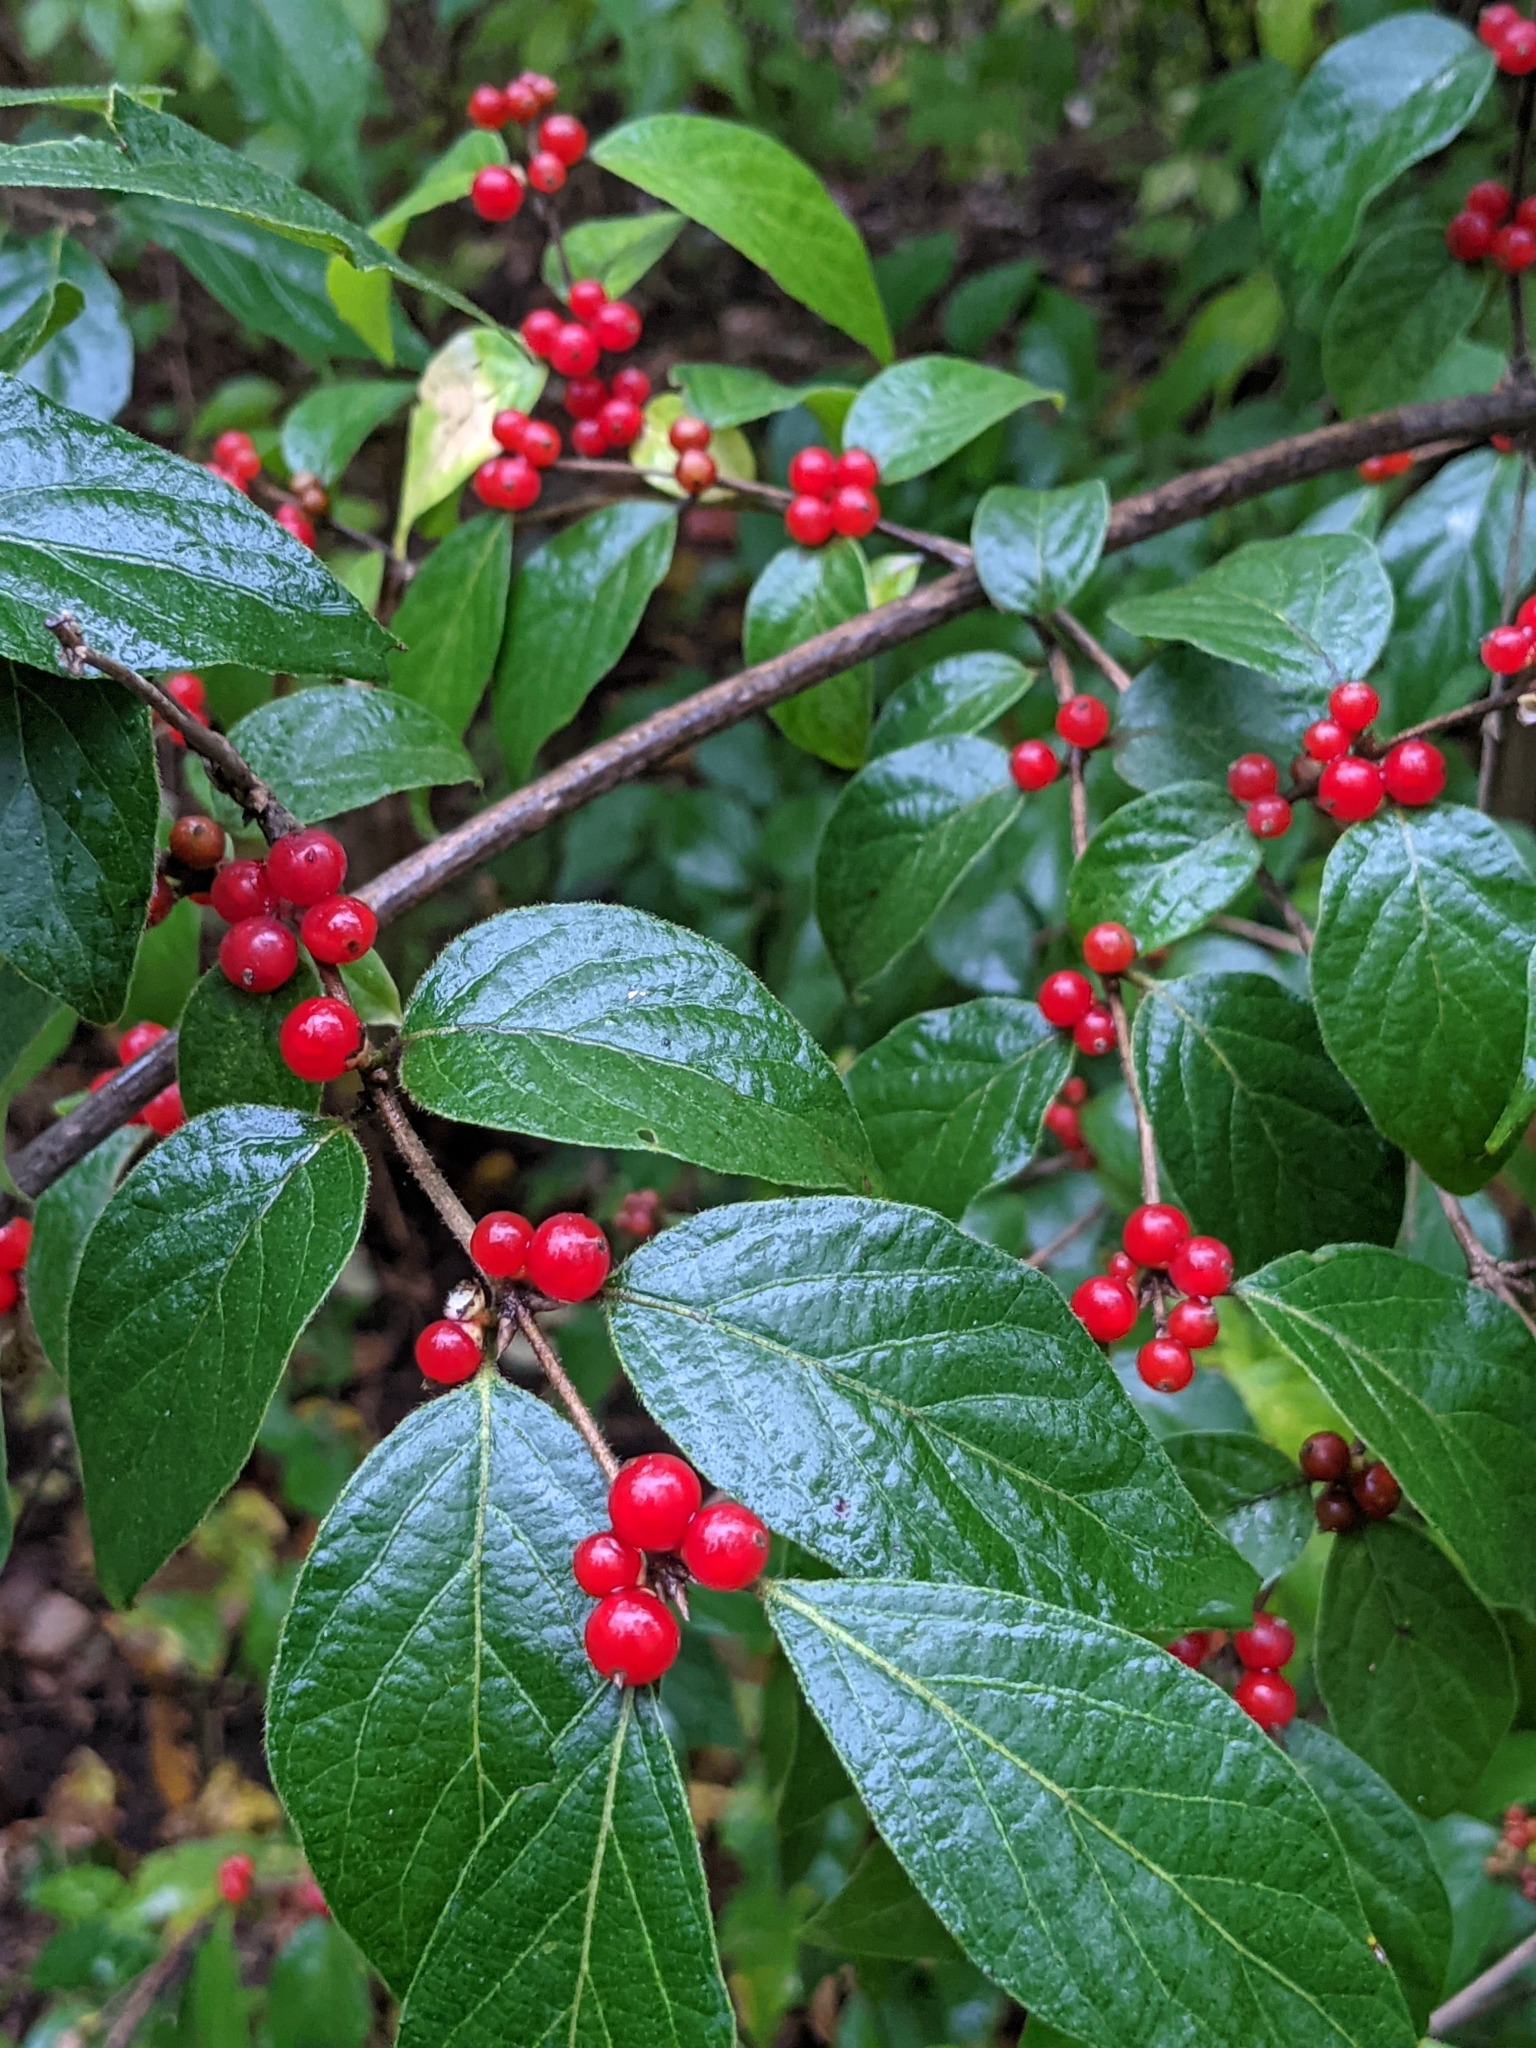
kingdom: Plantae
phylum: Tracheophyta
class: Magnoliopsida
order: Dipsacales
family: Caprifoliaceae
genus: Lonicera
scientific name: Lonicera maackii
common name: Amur honeysuckle
